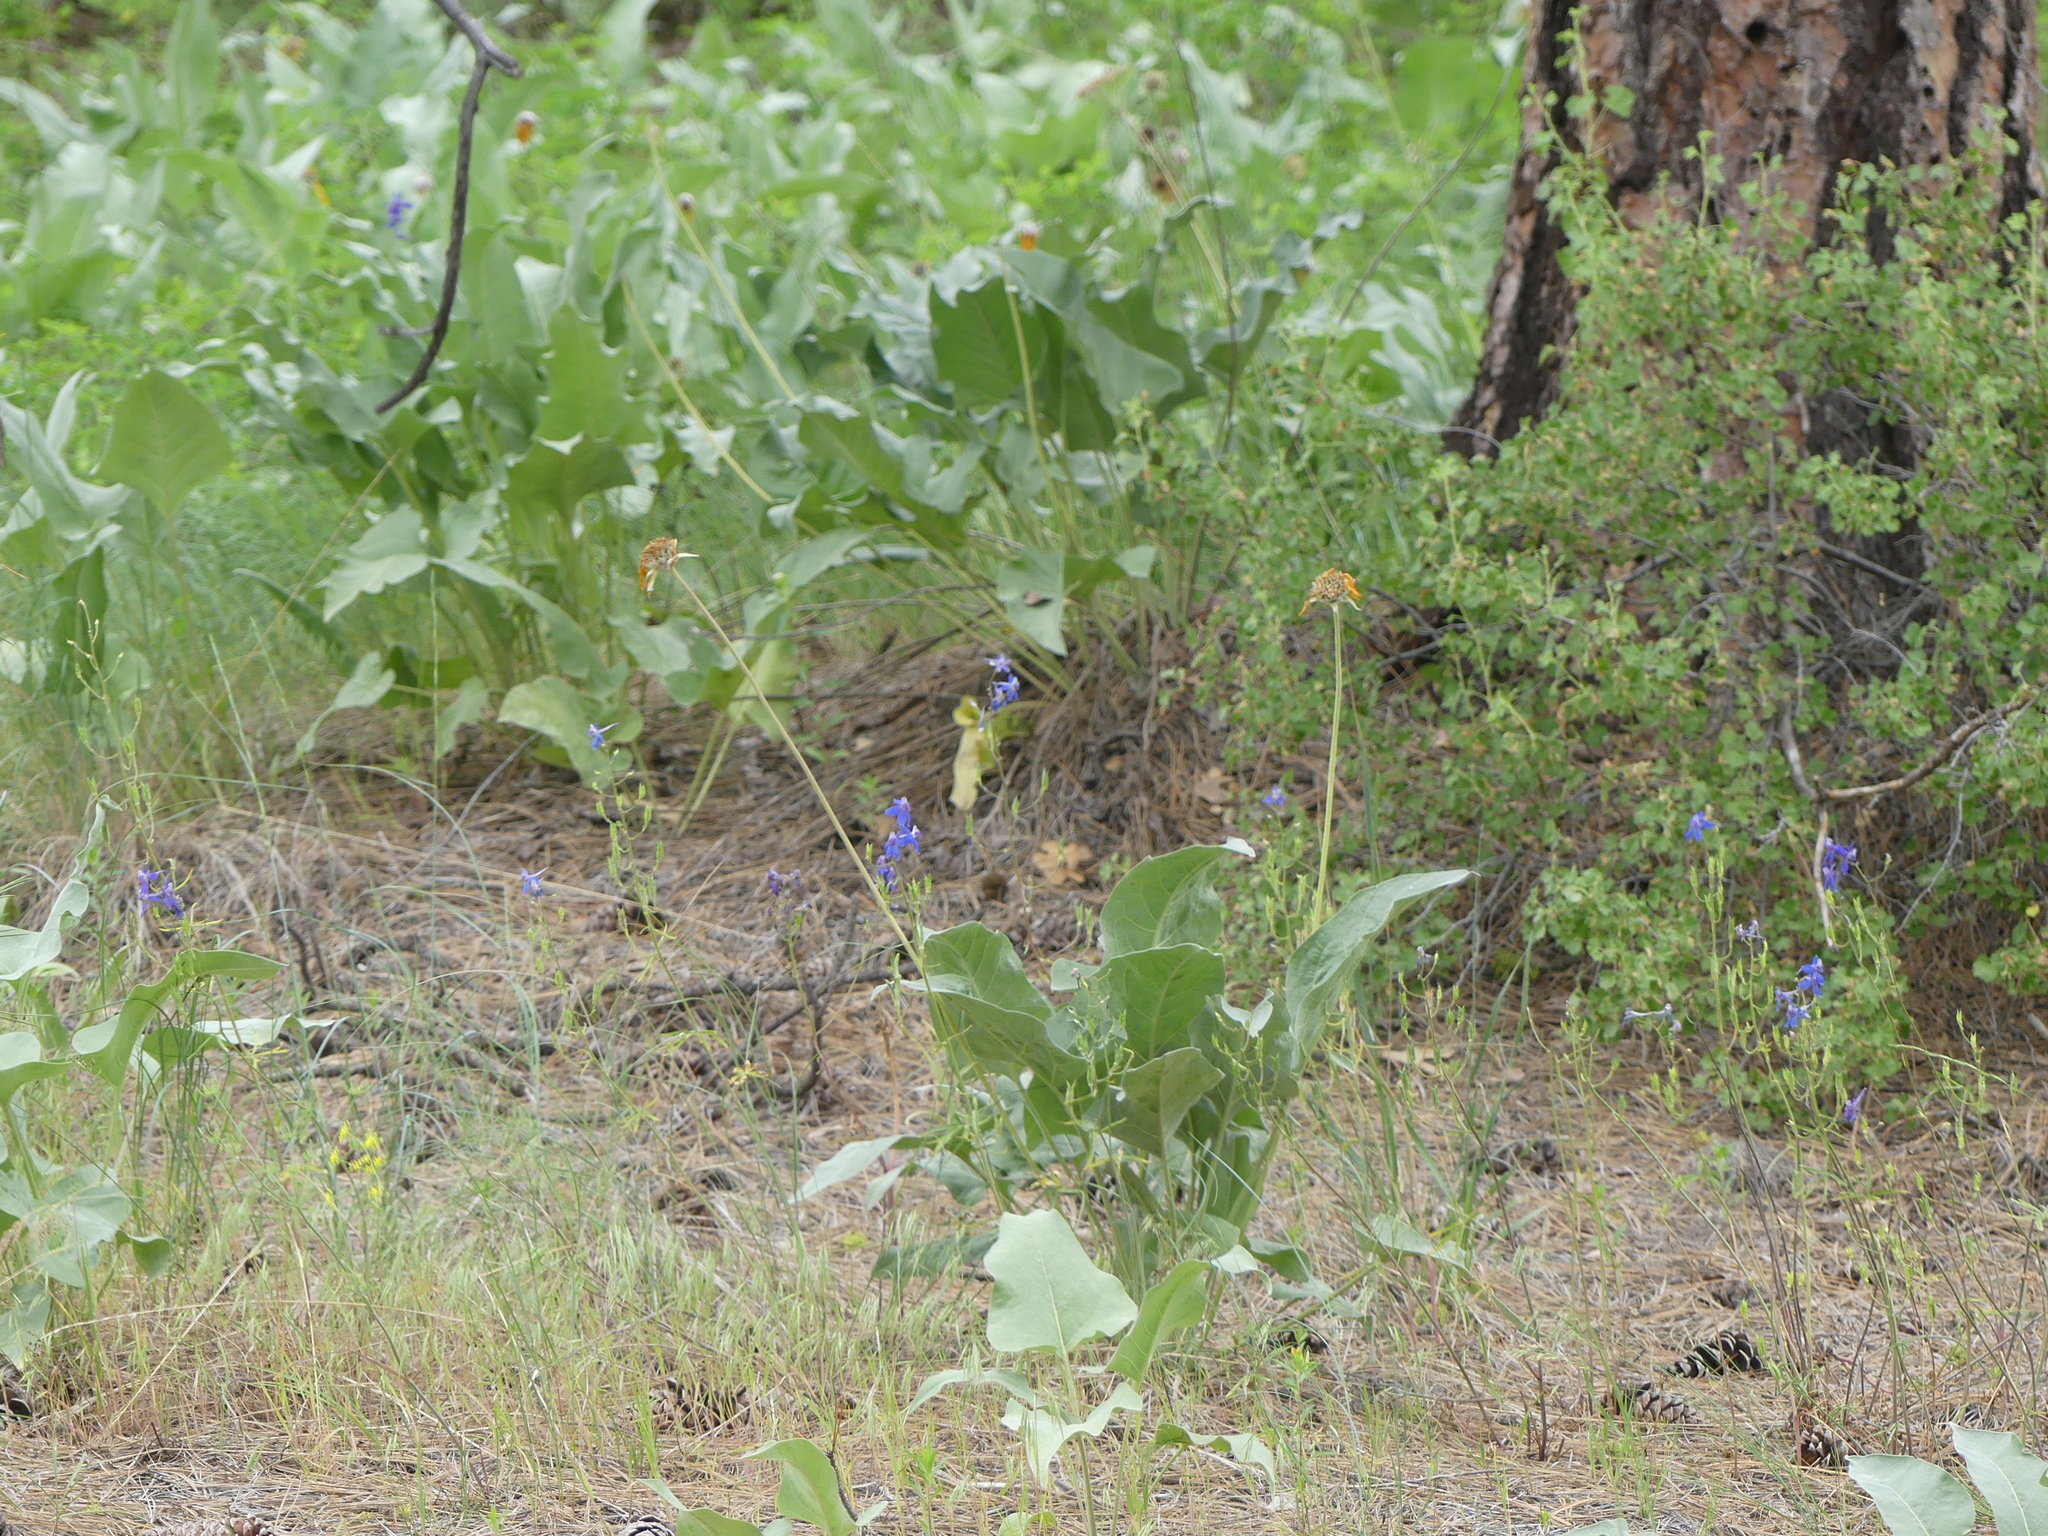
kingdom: Plantae
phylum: Tracheophyta
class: Magnoliopsida
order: Asterales
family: Asteraceae
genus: Wyethia
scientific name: Wyethia sagittata
